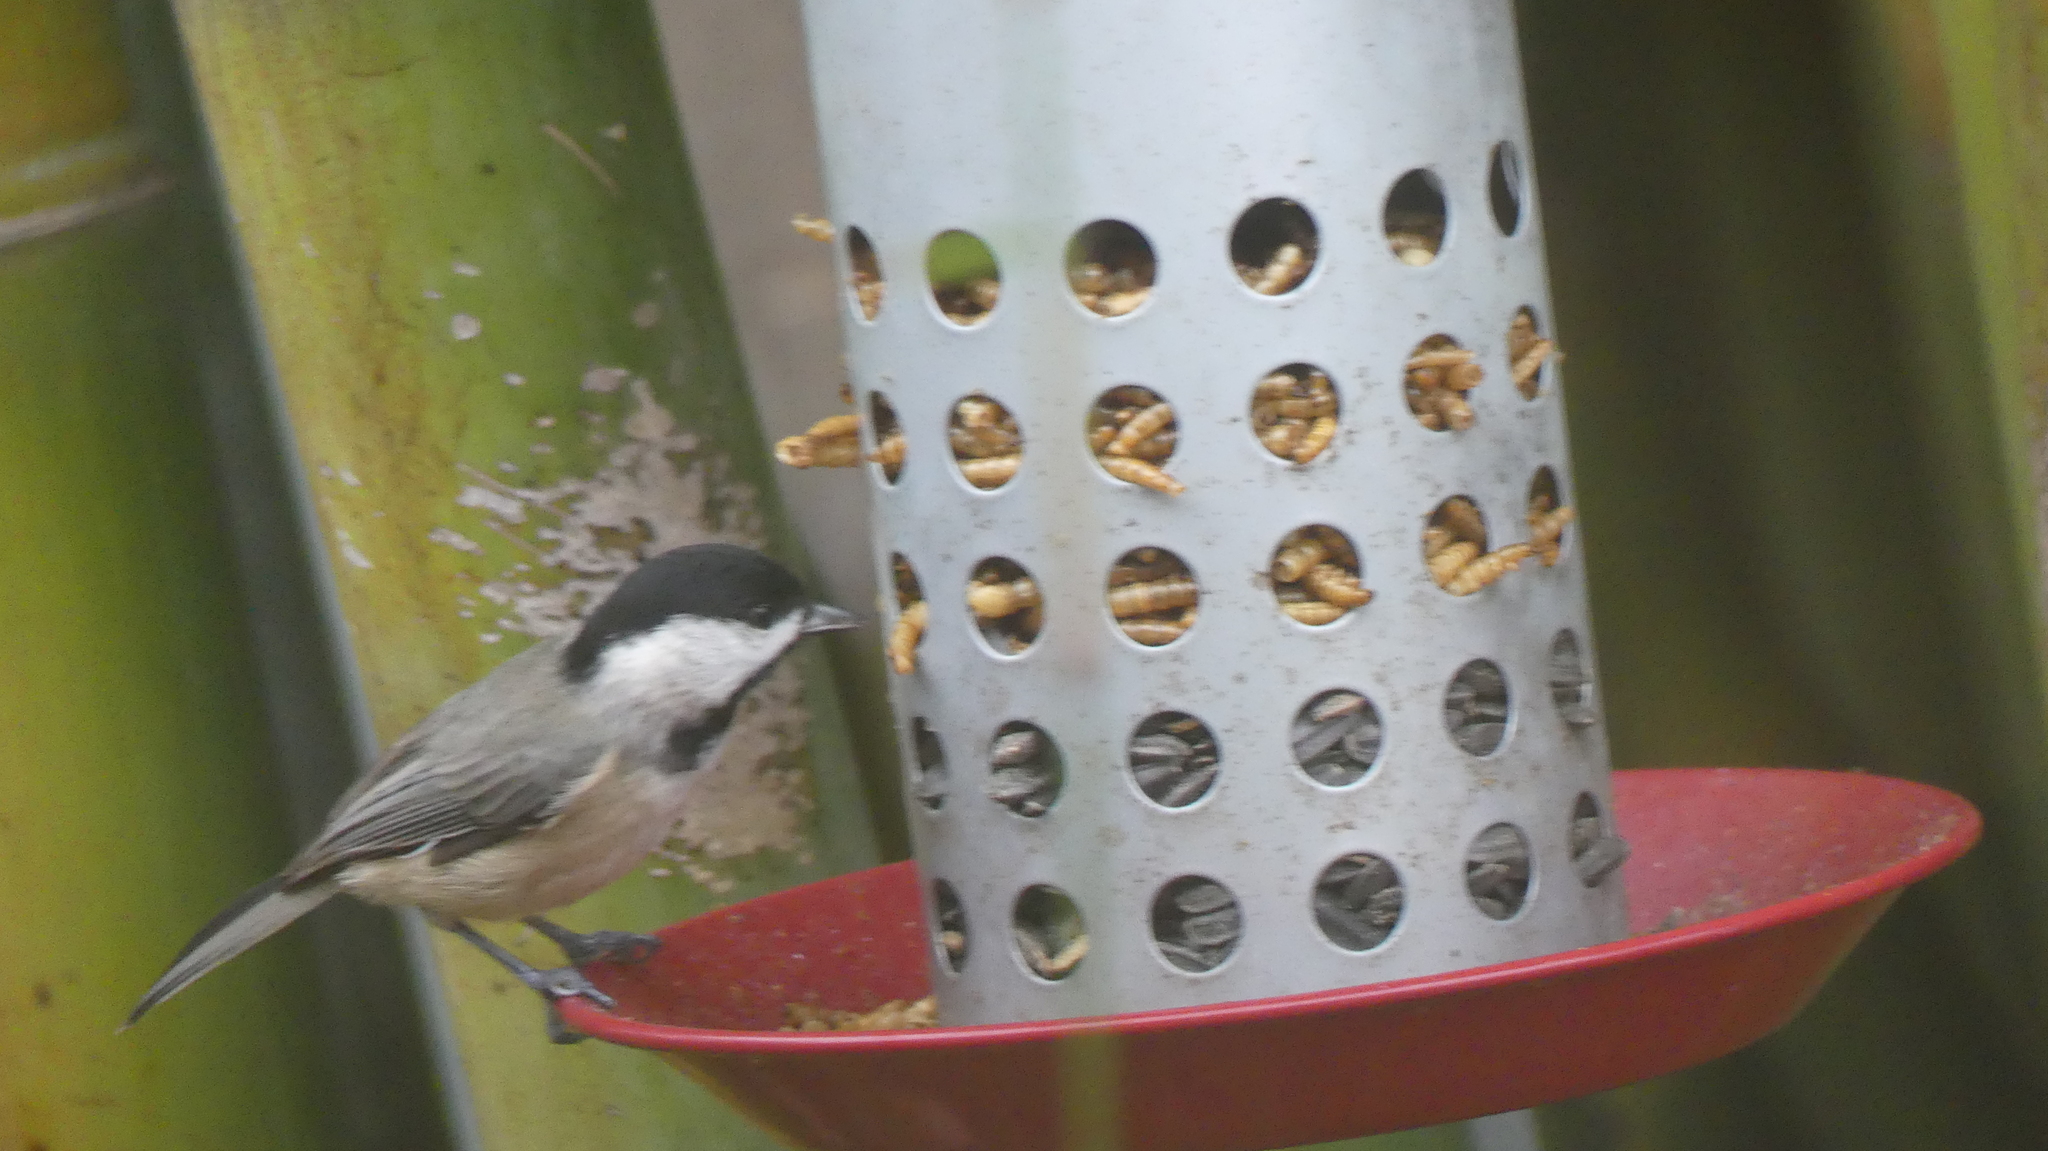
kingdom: Animalia
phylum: Chordata
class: Aves
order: Passeriformes
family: Paridae
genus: Poecile
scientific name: Poecile carolinensis
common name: Carolina chickadee
